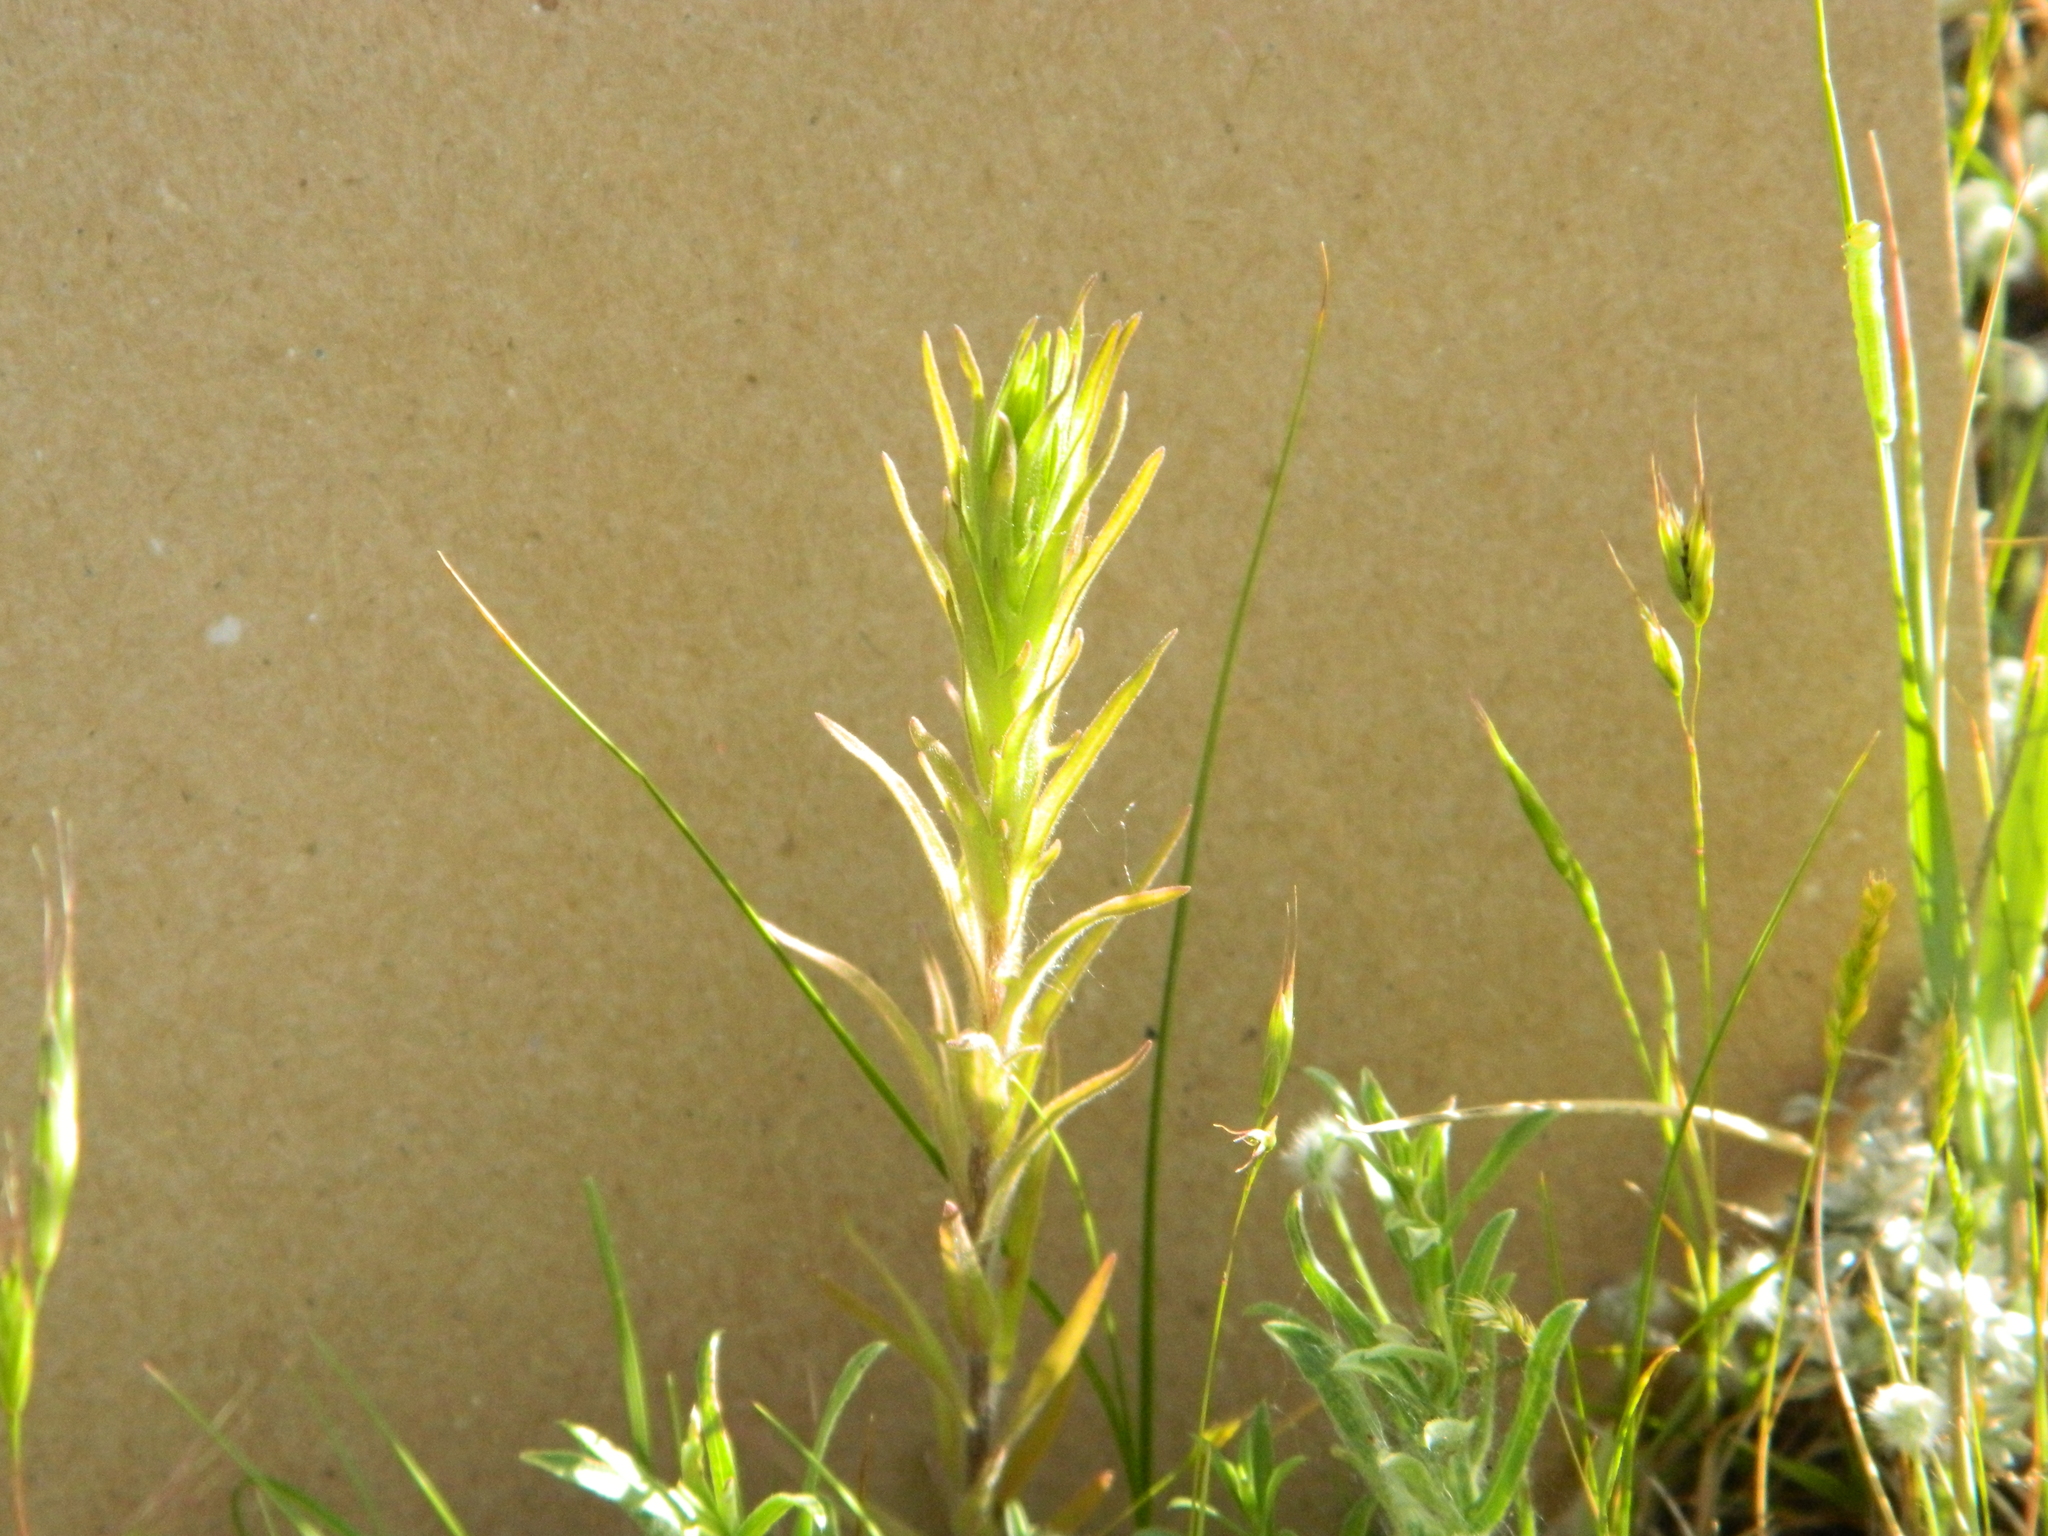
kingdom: Plantae
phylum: Tracheophyta
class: Magnoliopsida
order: Lamiales
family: Orobanchaceae
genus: Orthocarpus
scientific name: Orthocarpus luteus
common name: Golden-tongue owl's-clover
